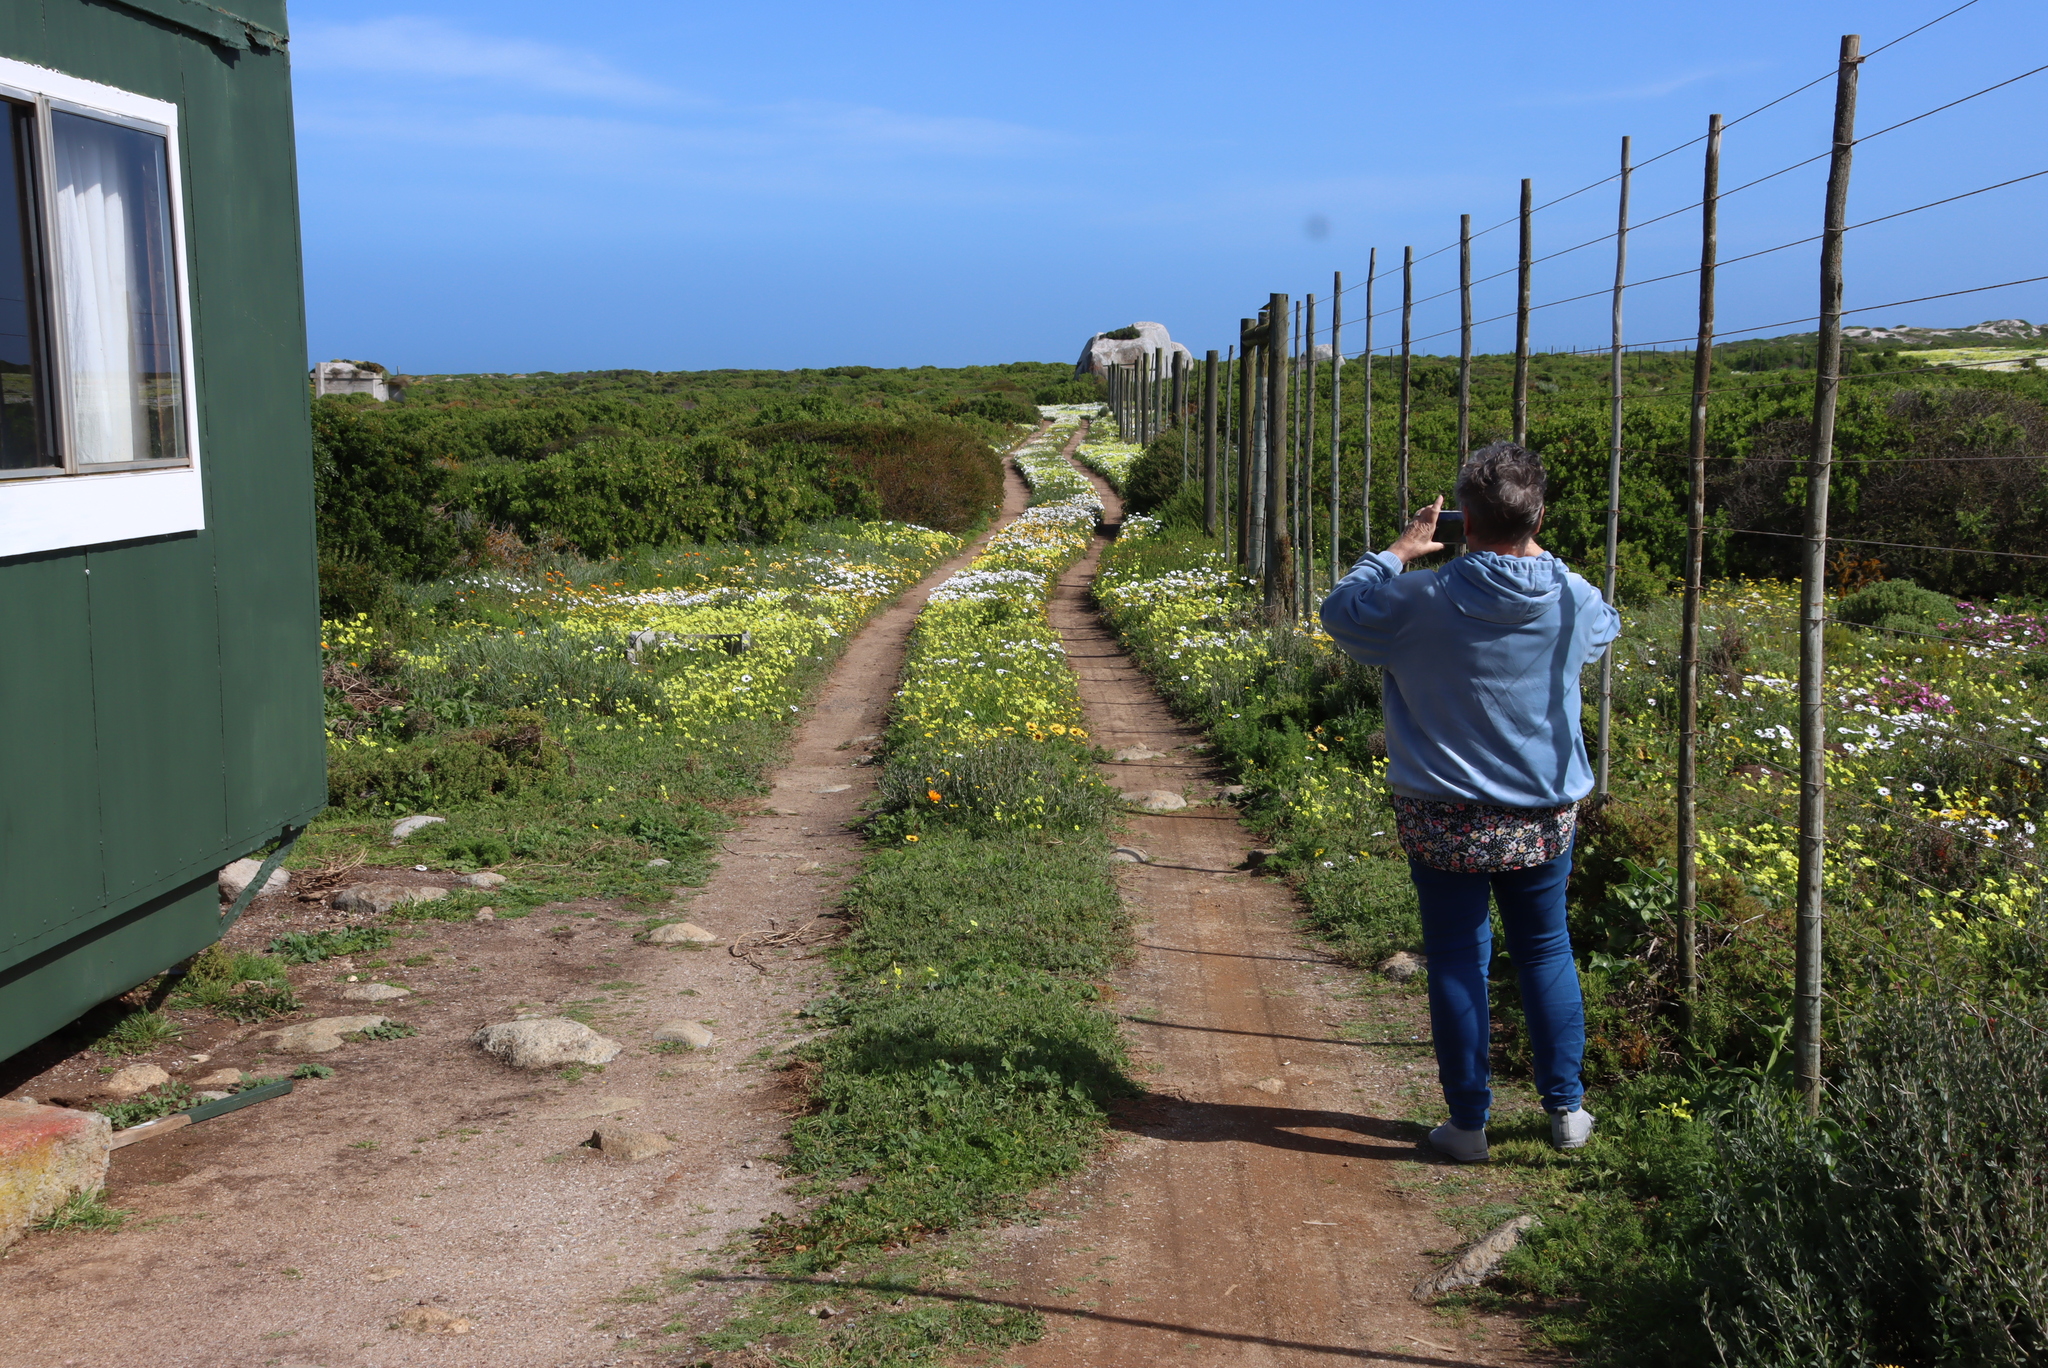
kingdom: Plantae
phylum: Tracheophyta
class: Magnoliopsida
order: Oxalidales
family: Oxalidaceae
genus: Oxalis
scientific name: Oxalis pes-caprae
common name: Bermuda-buttercup
